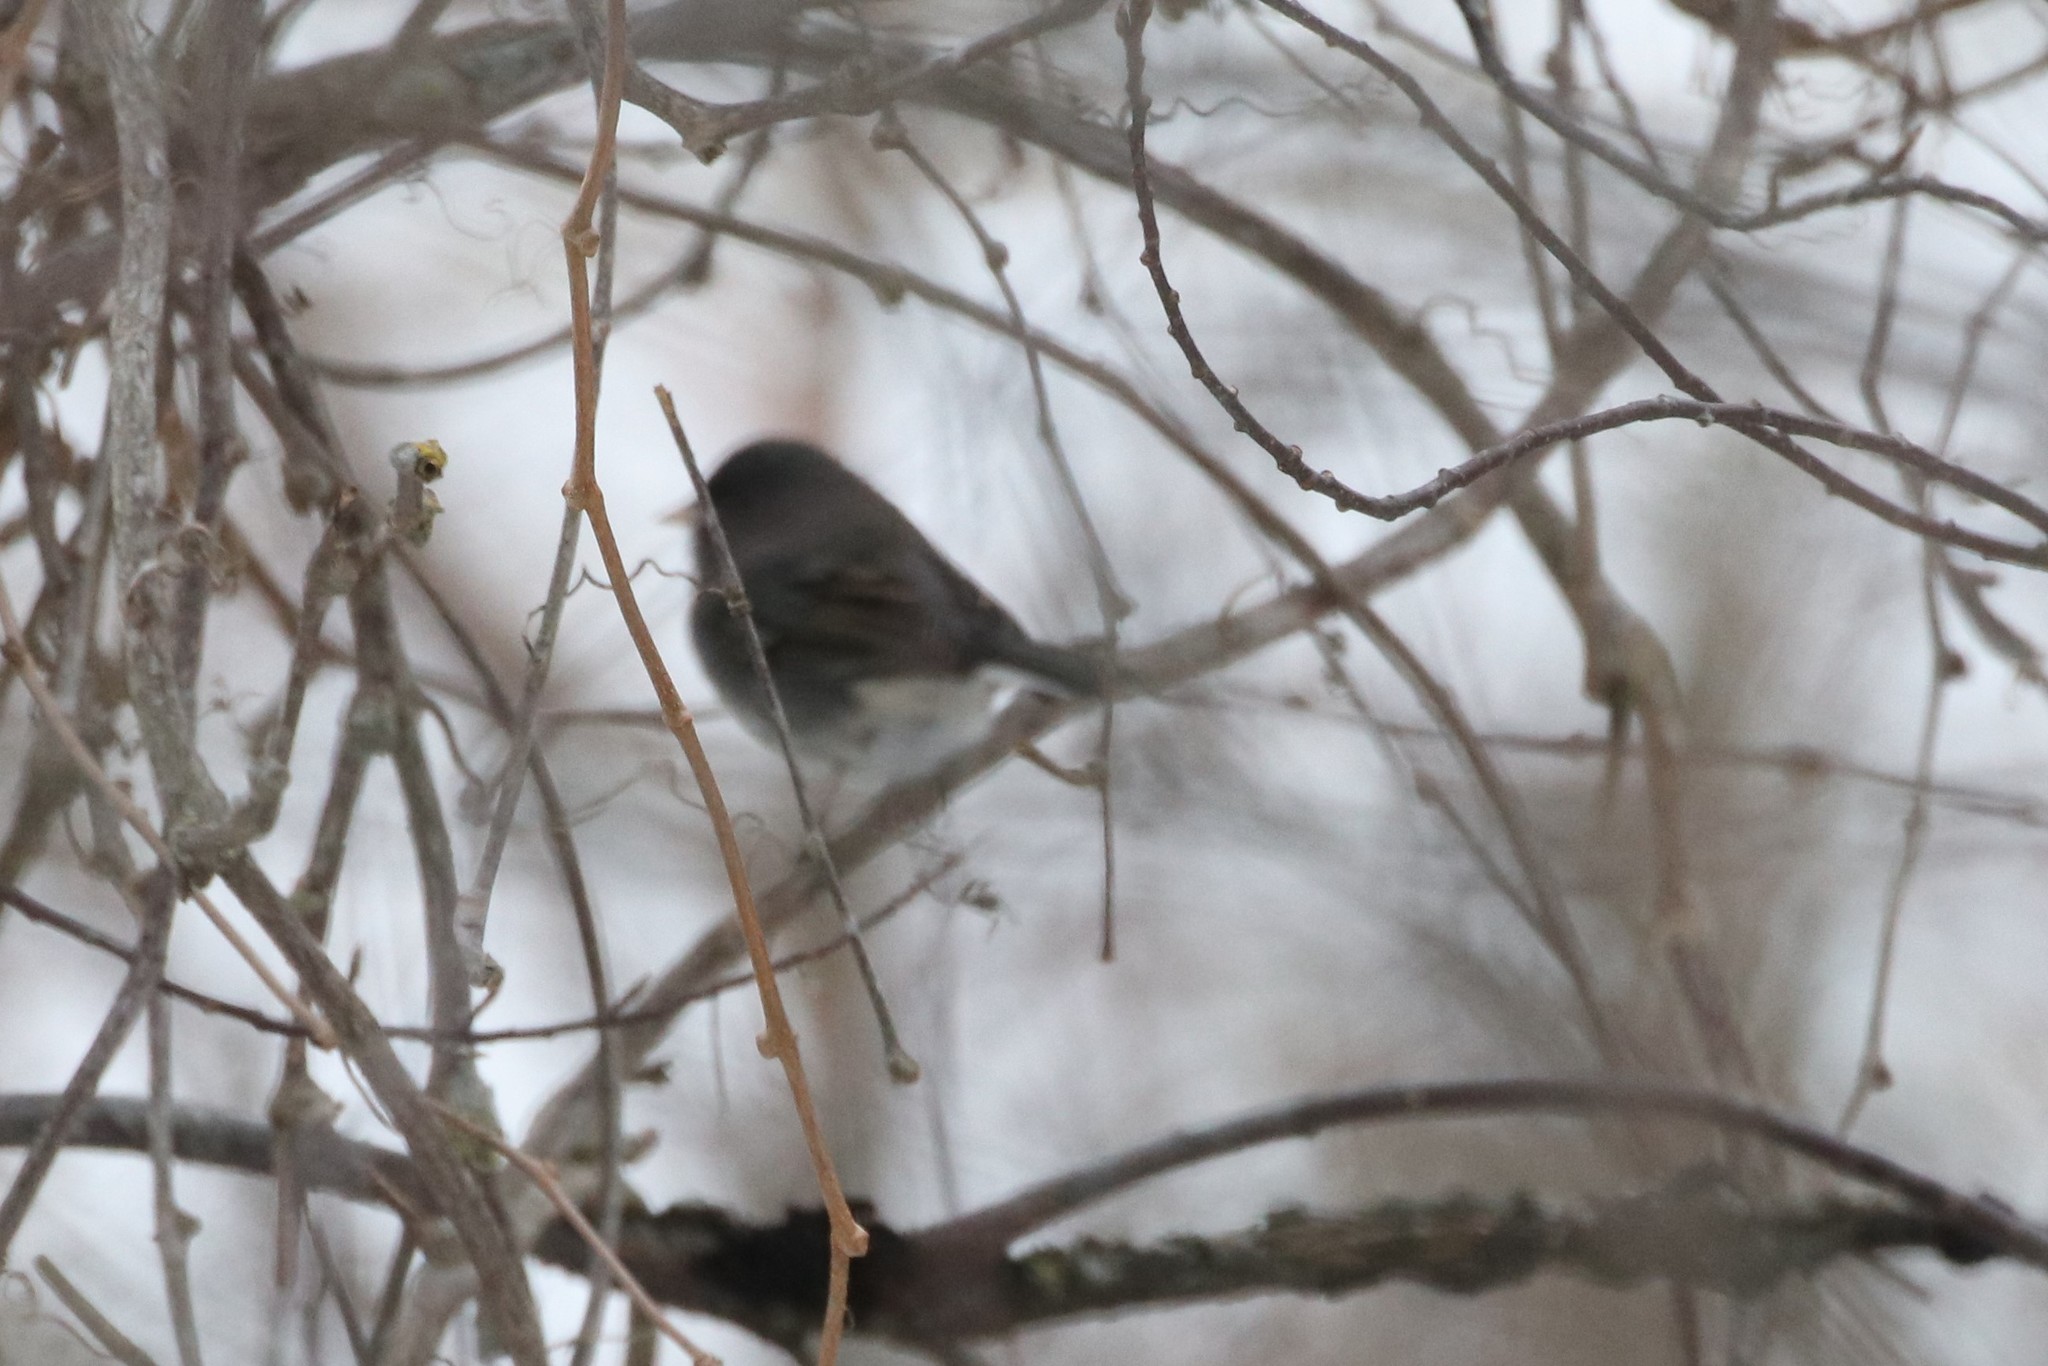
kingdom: Animalia
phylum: Chordata
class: Aves
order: Passeriformes
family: Passerellidae
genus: Junco
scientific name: Junco hyemalis
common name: Dark-eyed junco
